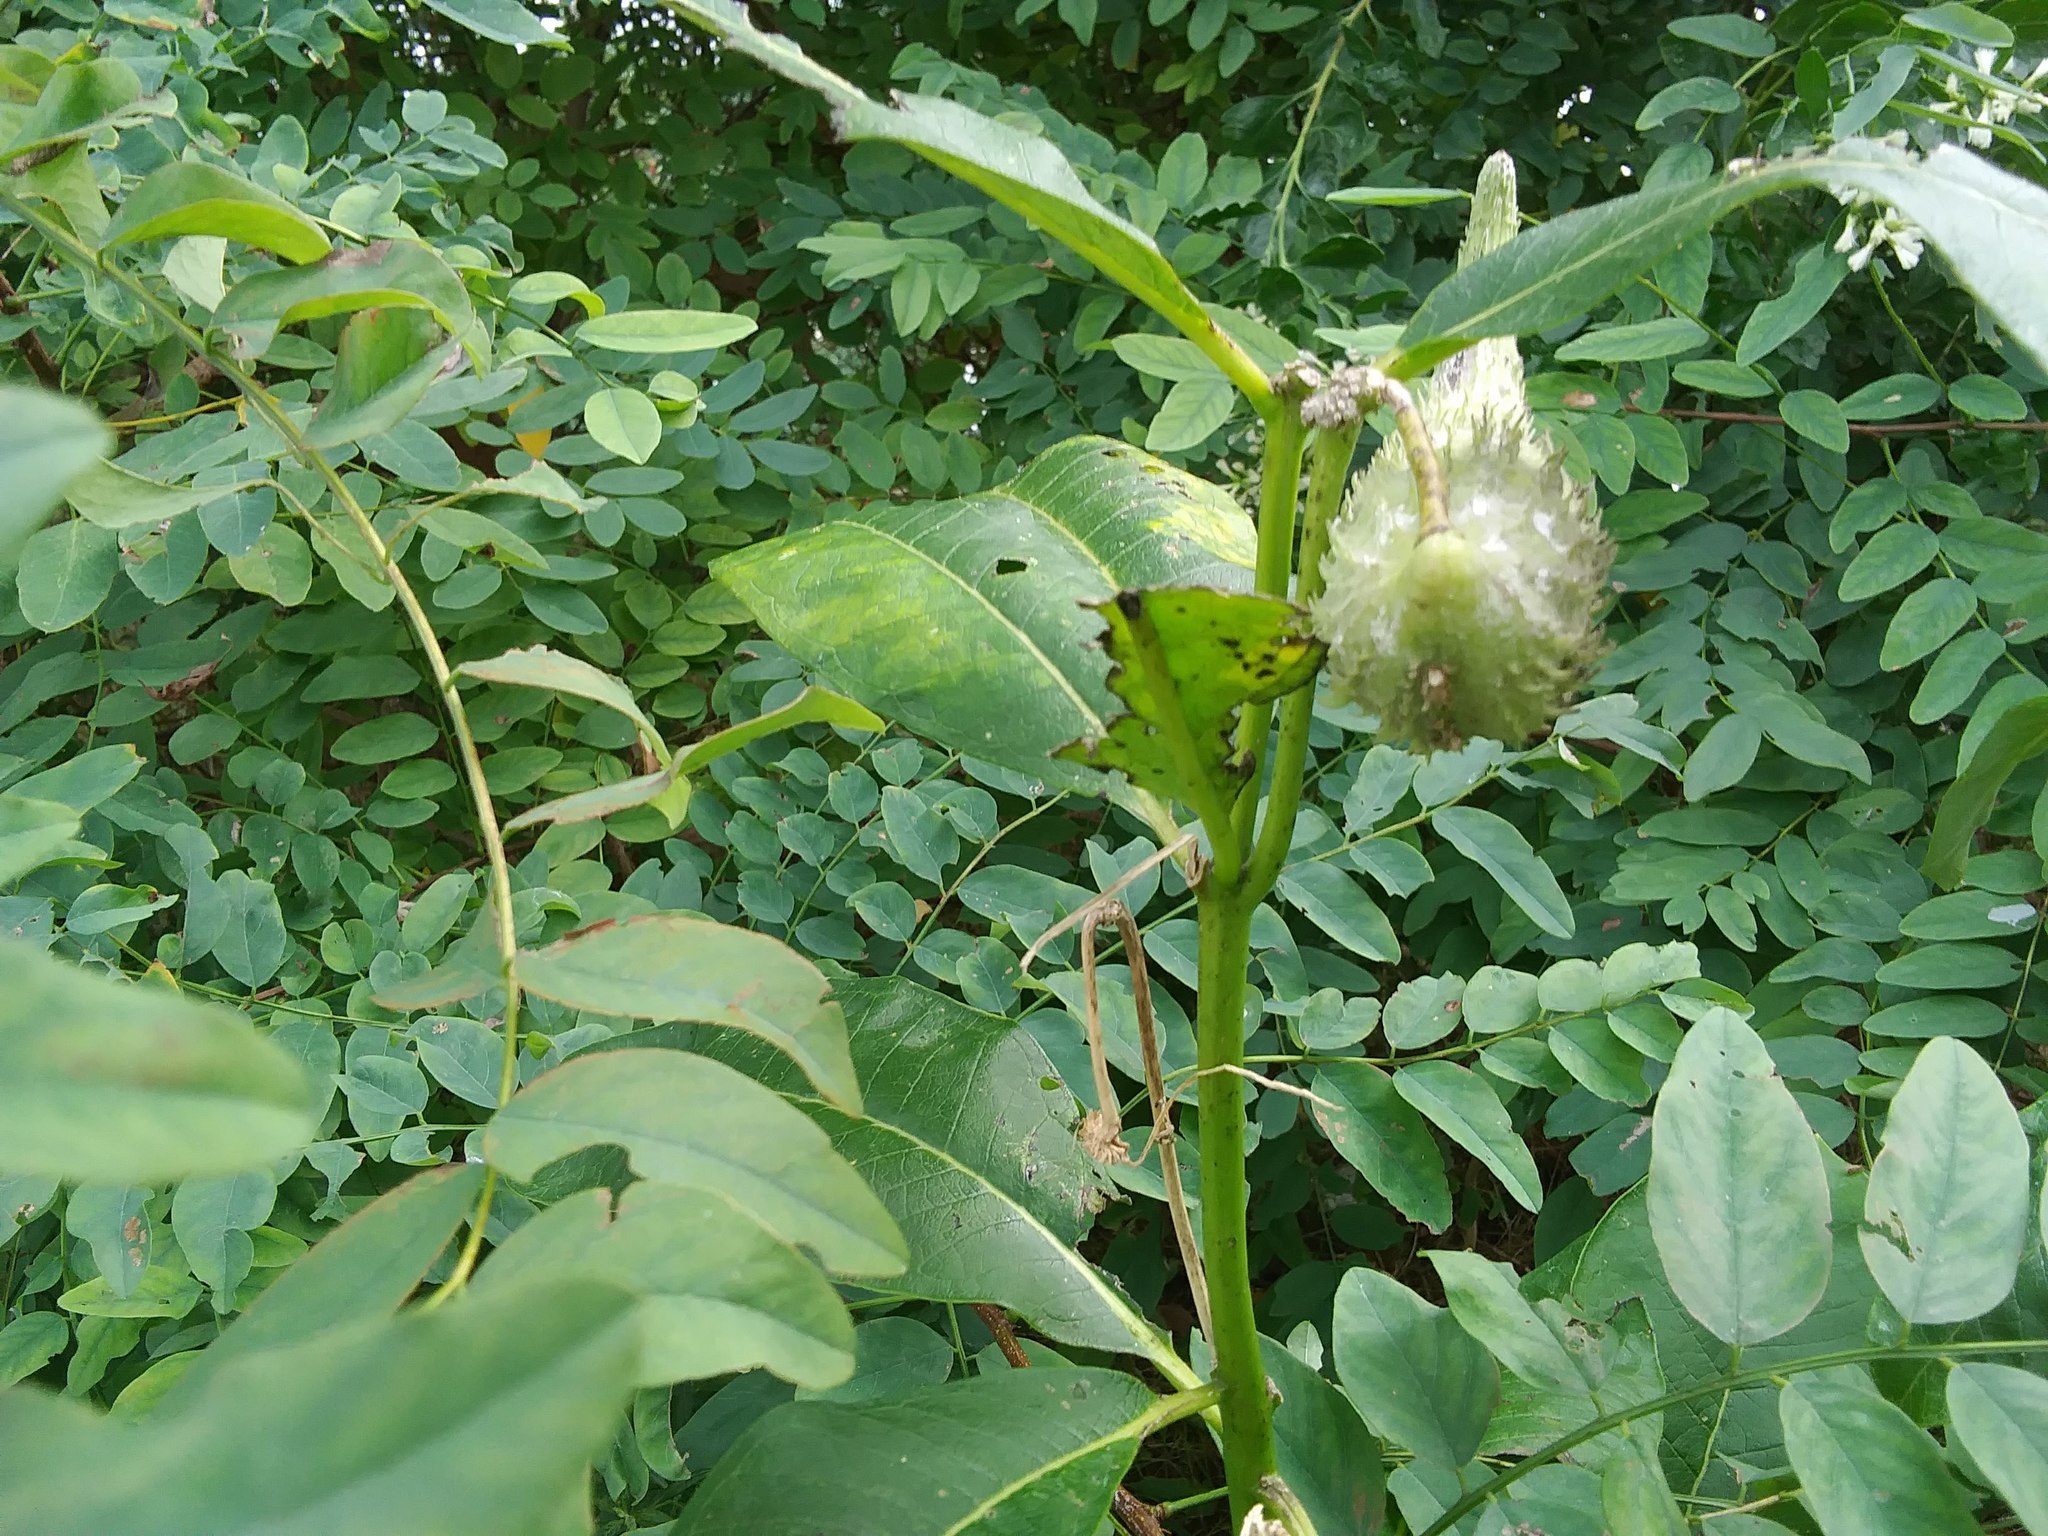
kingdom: Plantae
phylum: Tracheophyta
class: Magnoliopsida
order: Gentianales
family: Apocynaceae
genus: Asclepias
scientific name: Asclepias syriaca
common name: Common milkweed
